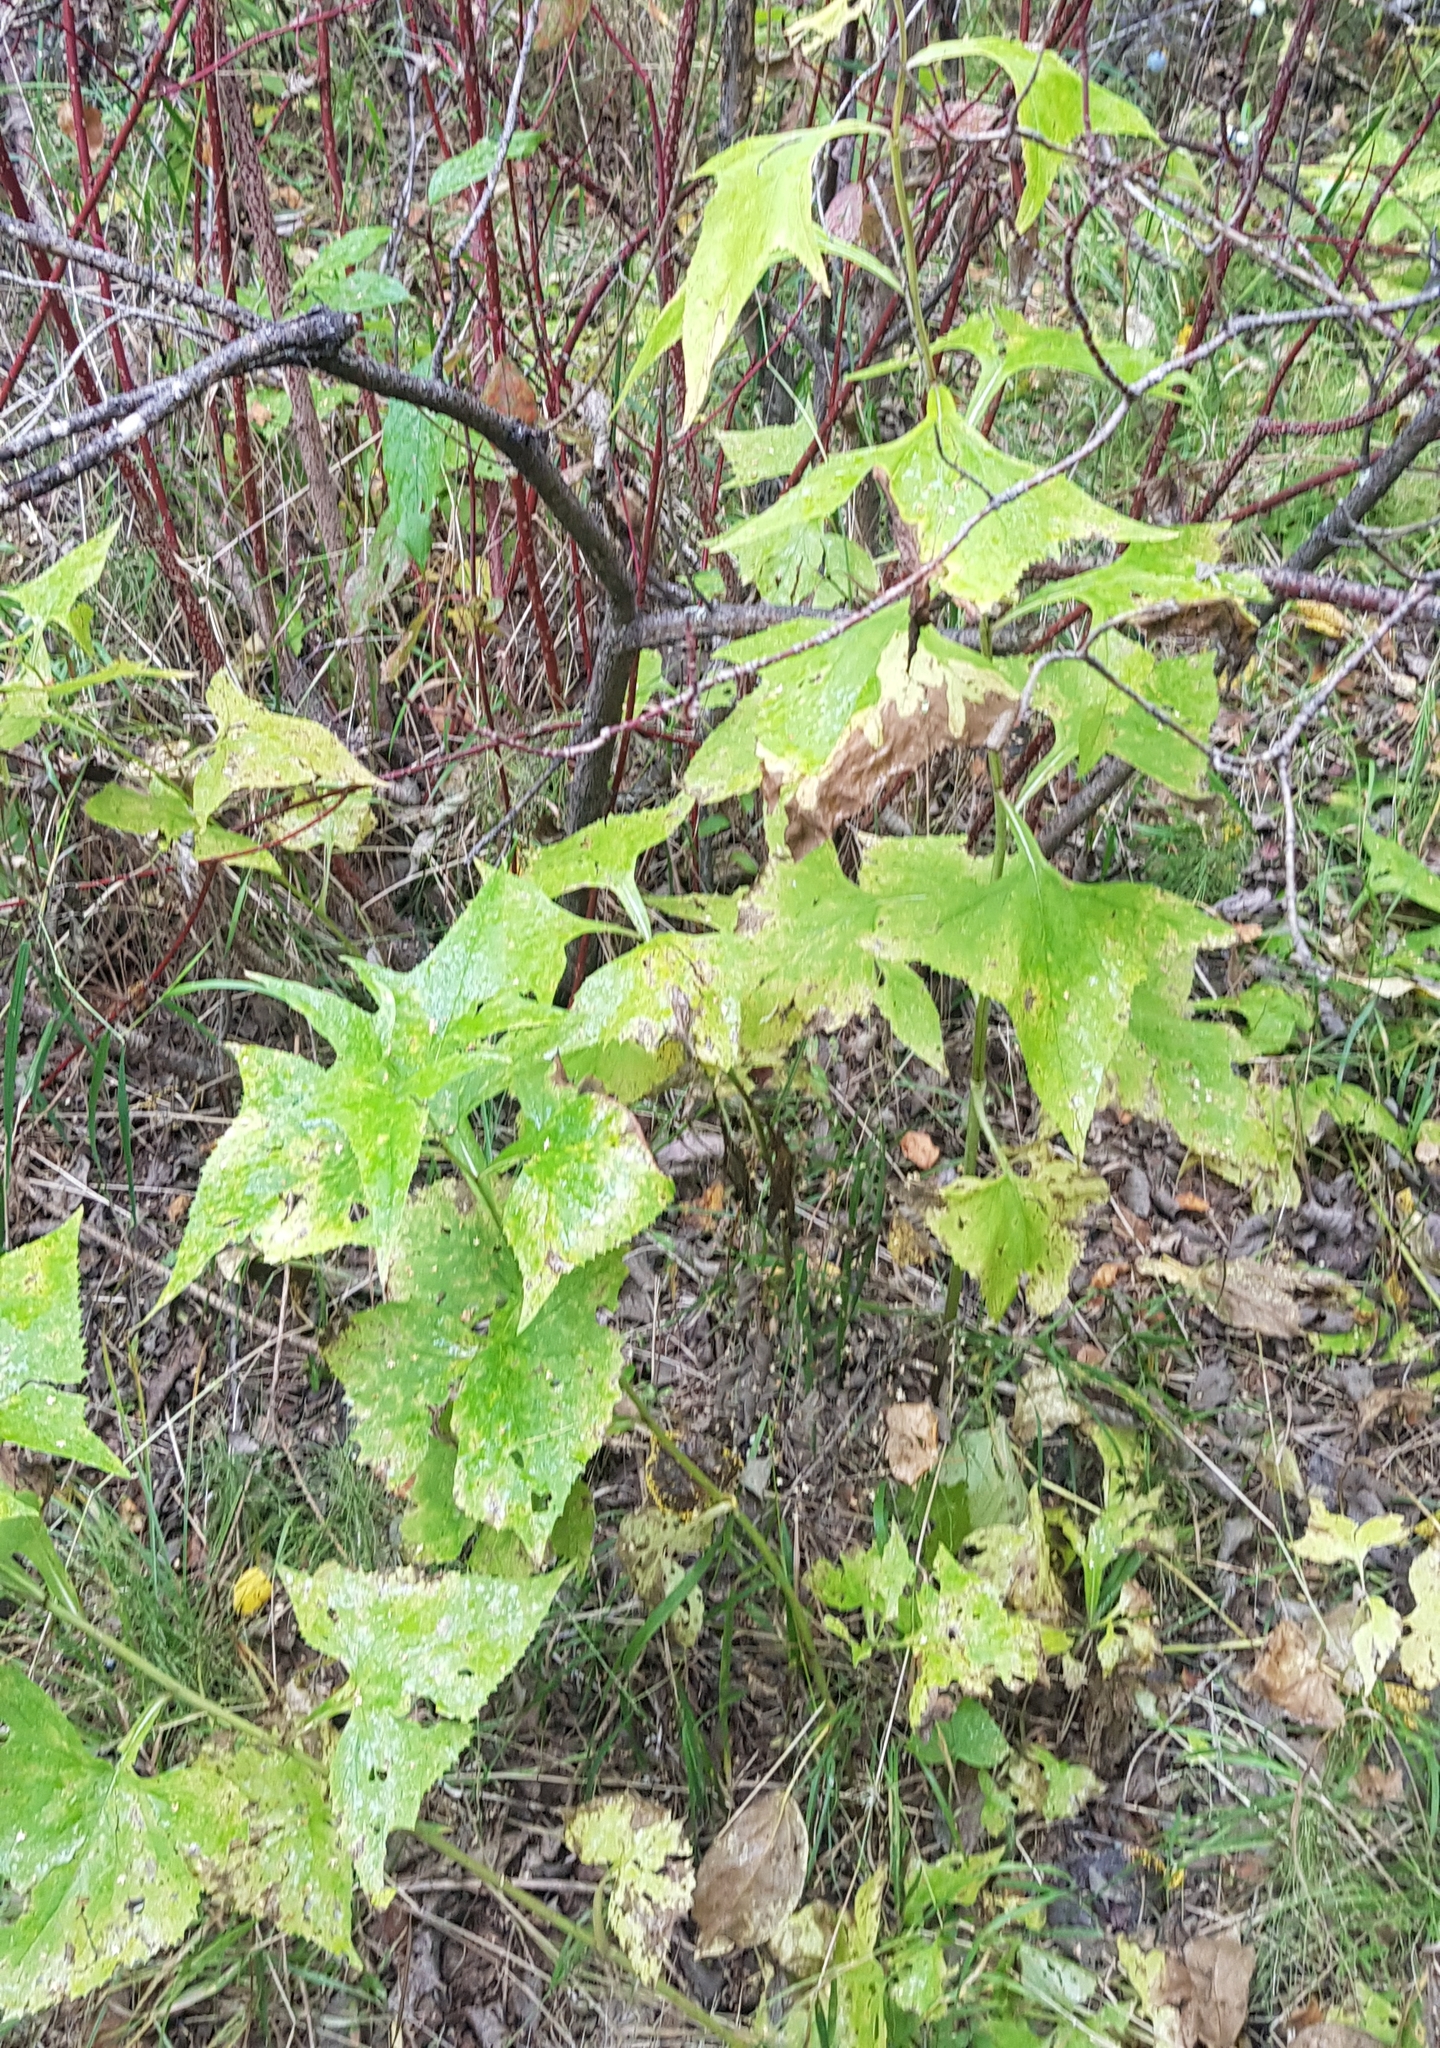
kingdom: Plantae
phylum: Tracheophyta
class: Magnoliopsida
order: Asterales
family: Asteraceae
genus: Parasenecio
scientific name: Parasenecio hastatus
